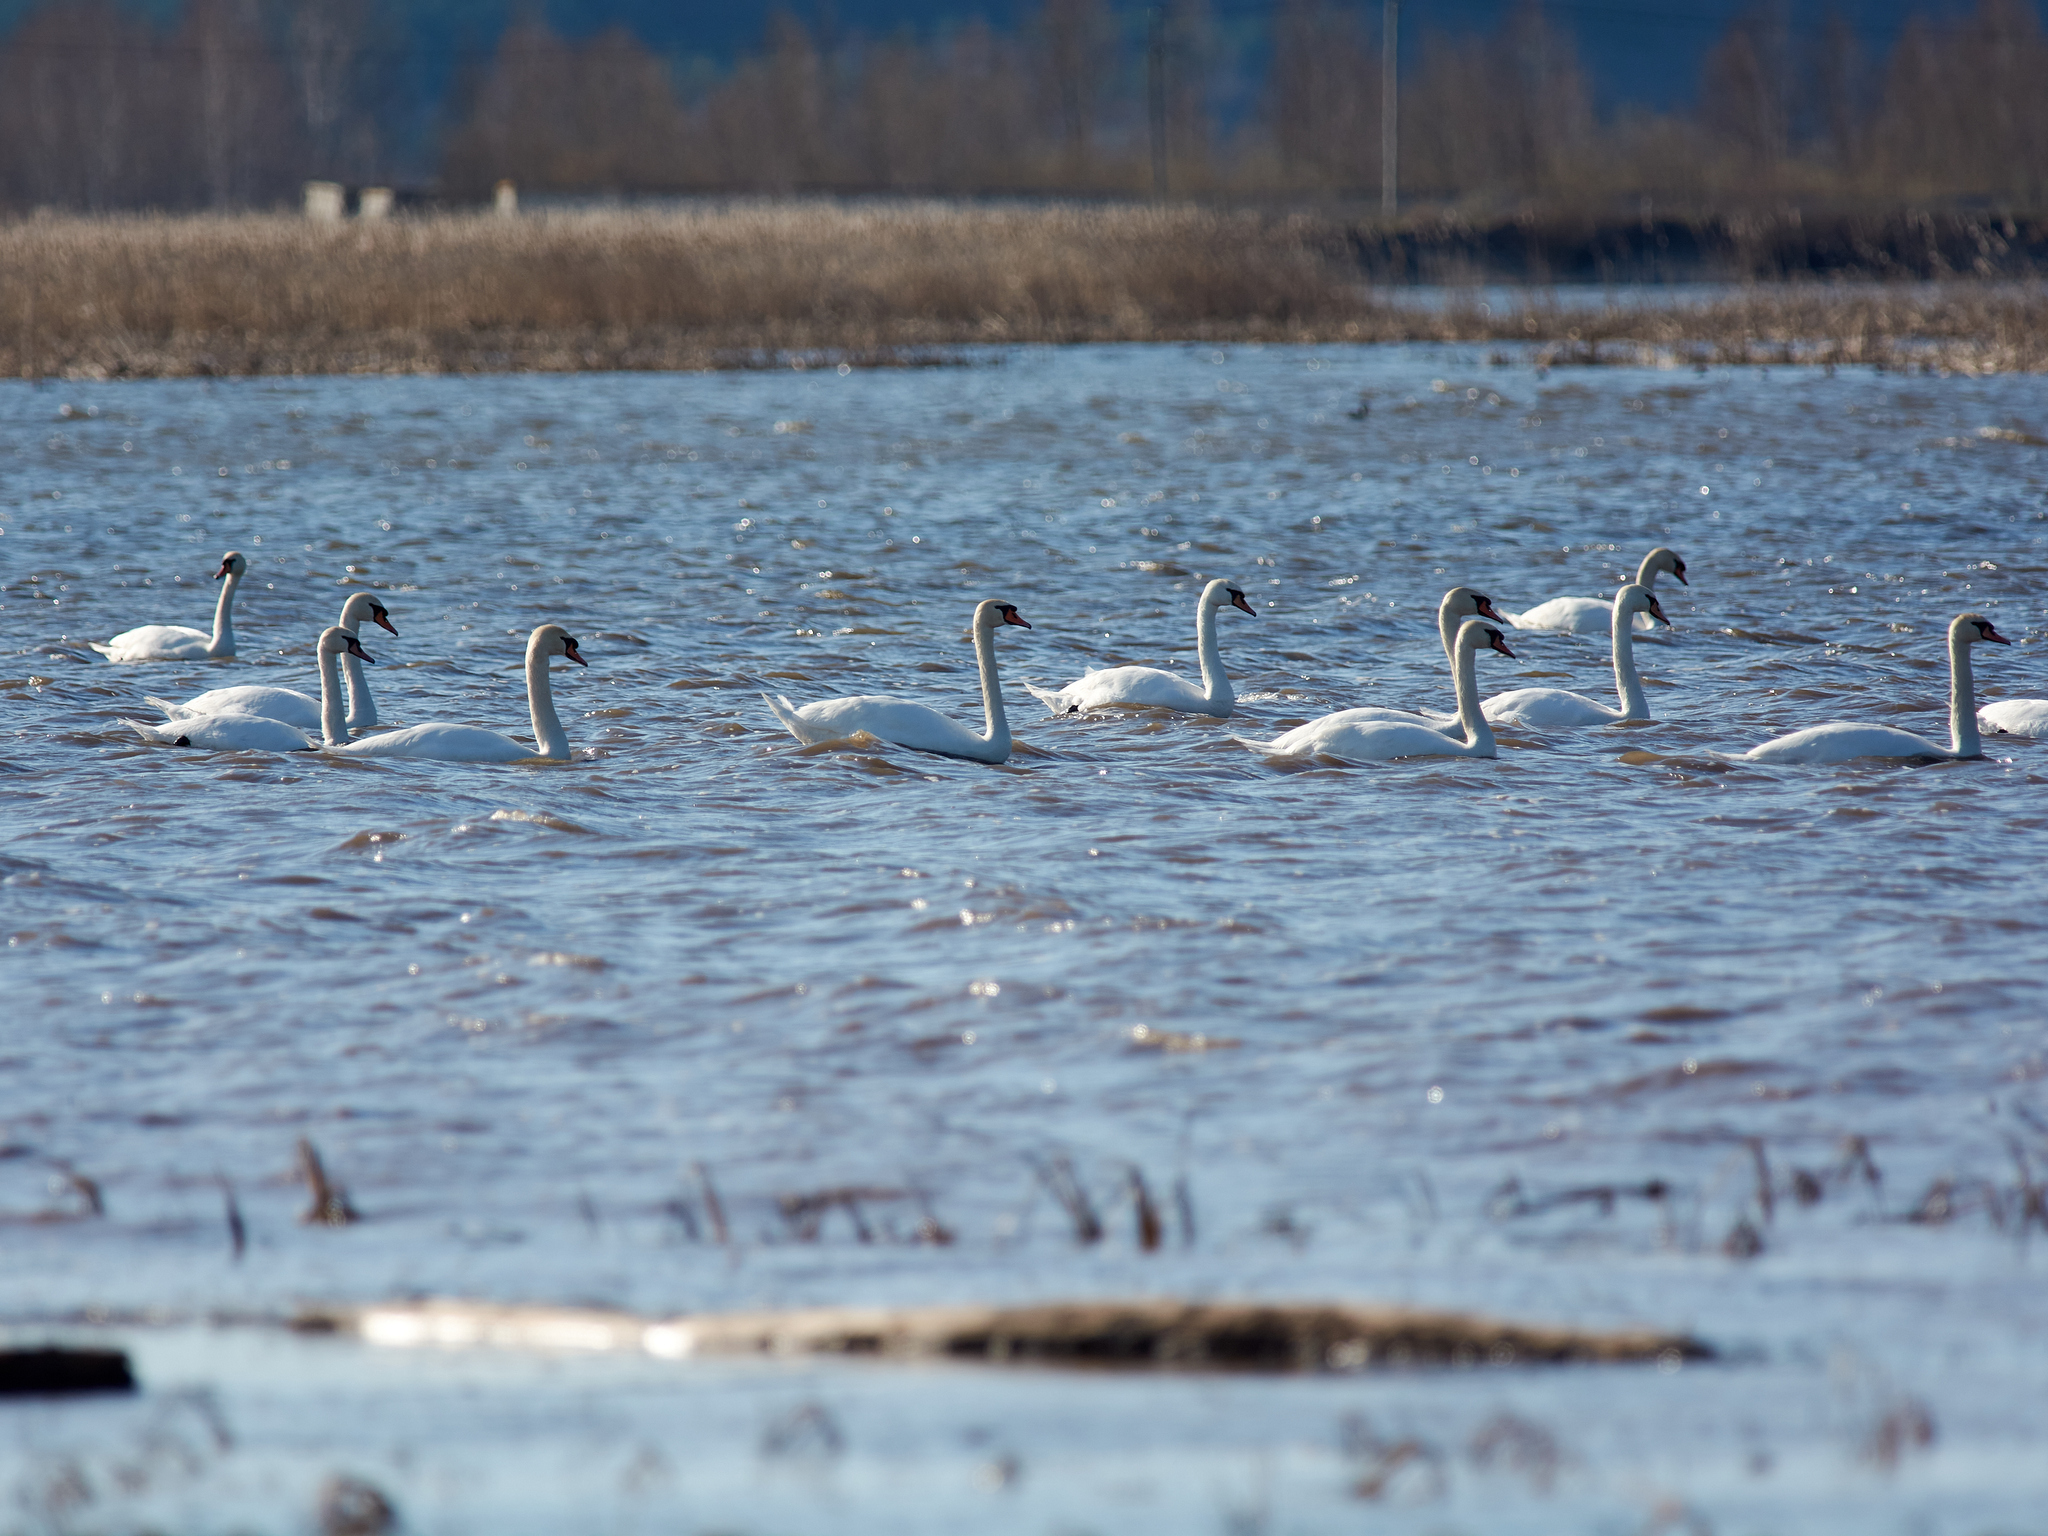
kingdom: Animalia
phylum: Chordata
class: Aves
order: Anseriformes
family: Anatidae
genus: Cygnus
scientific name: Cygnus olor
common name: Mute swan
